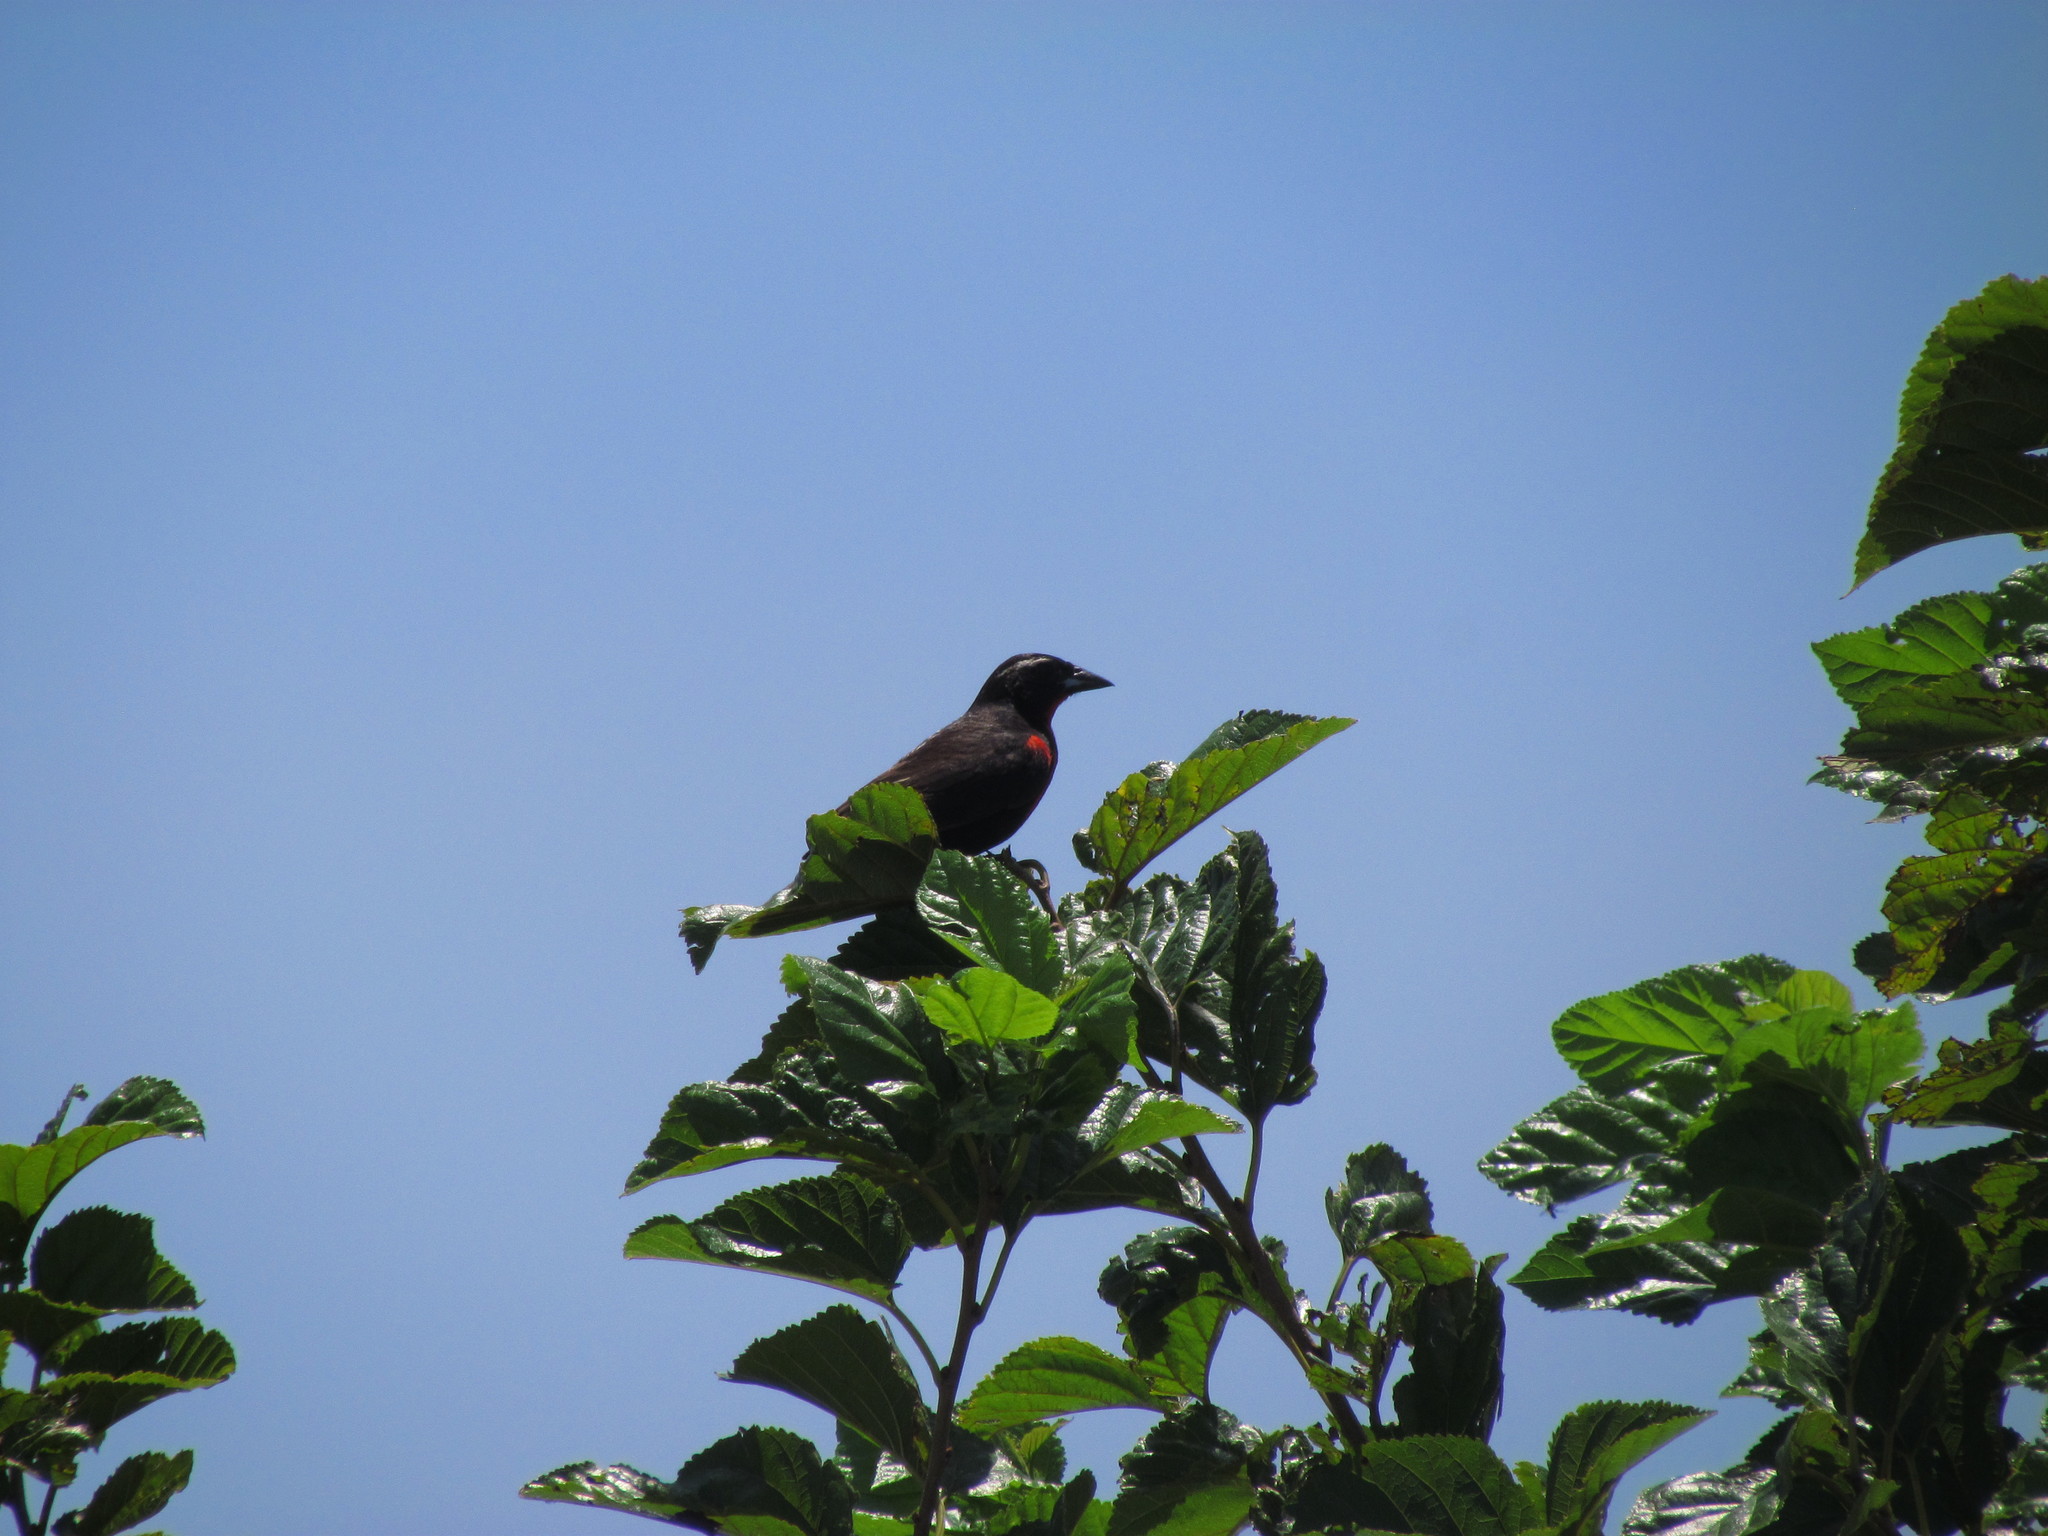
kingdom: Animalia
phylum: Chordata
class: Aves
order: Passeriformes
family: Icteridae
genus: Sturnella
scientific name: Sturnella superciliaris
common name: White-browed blackbird
